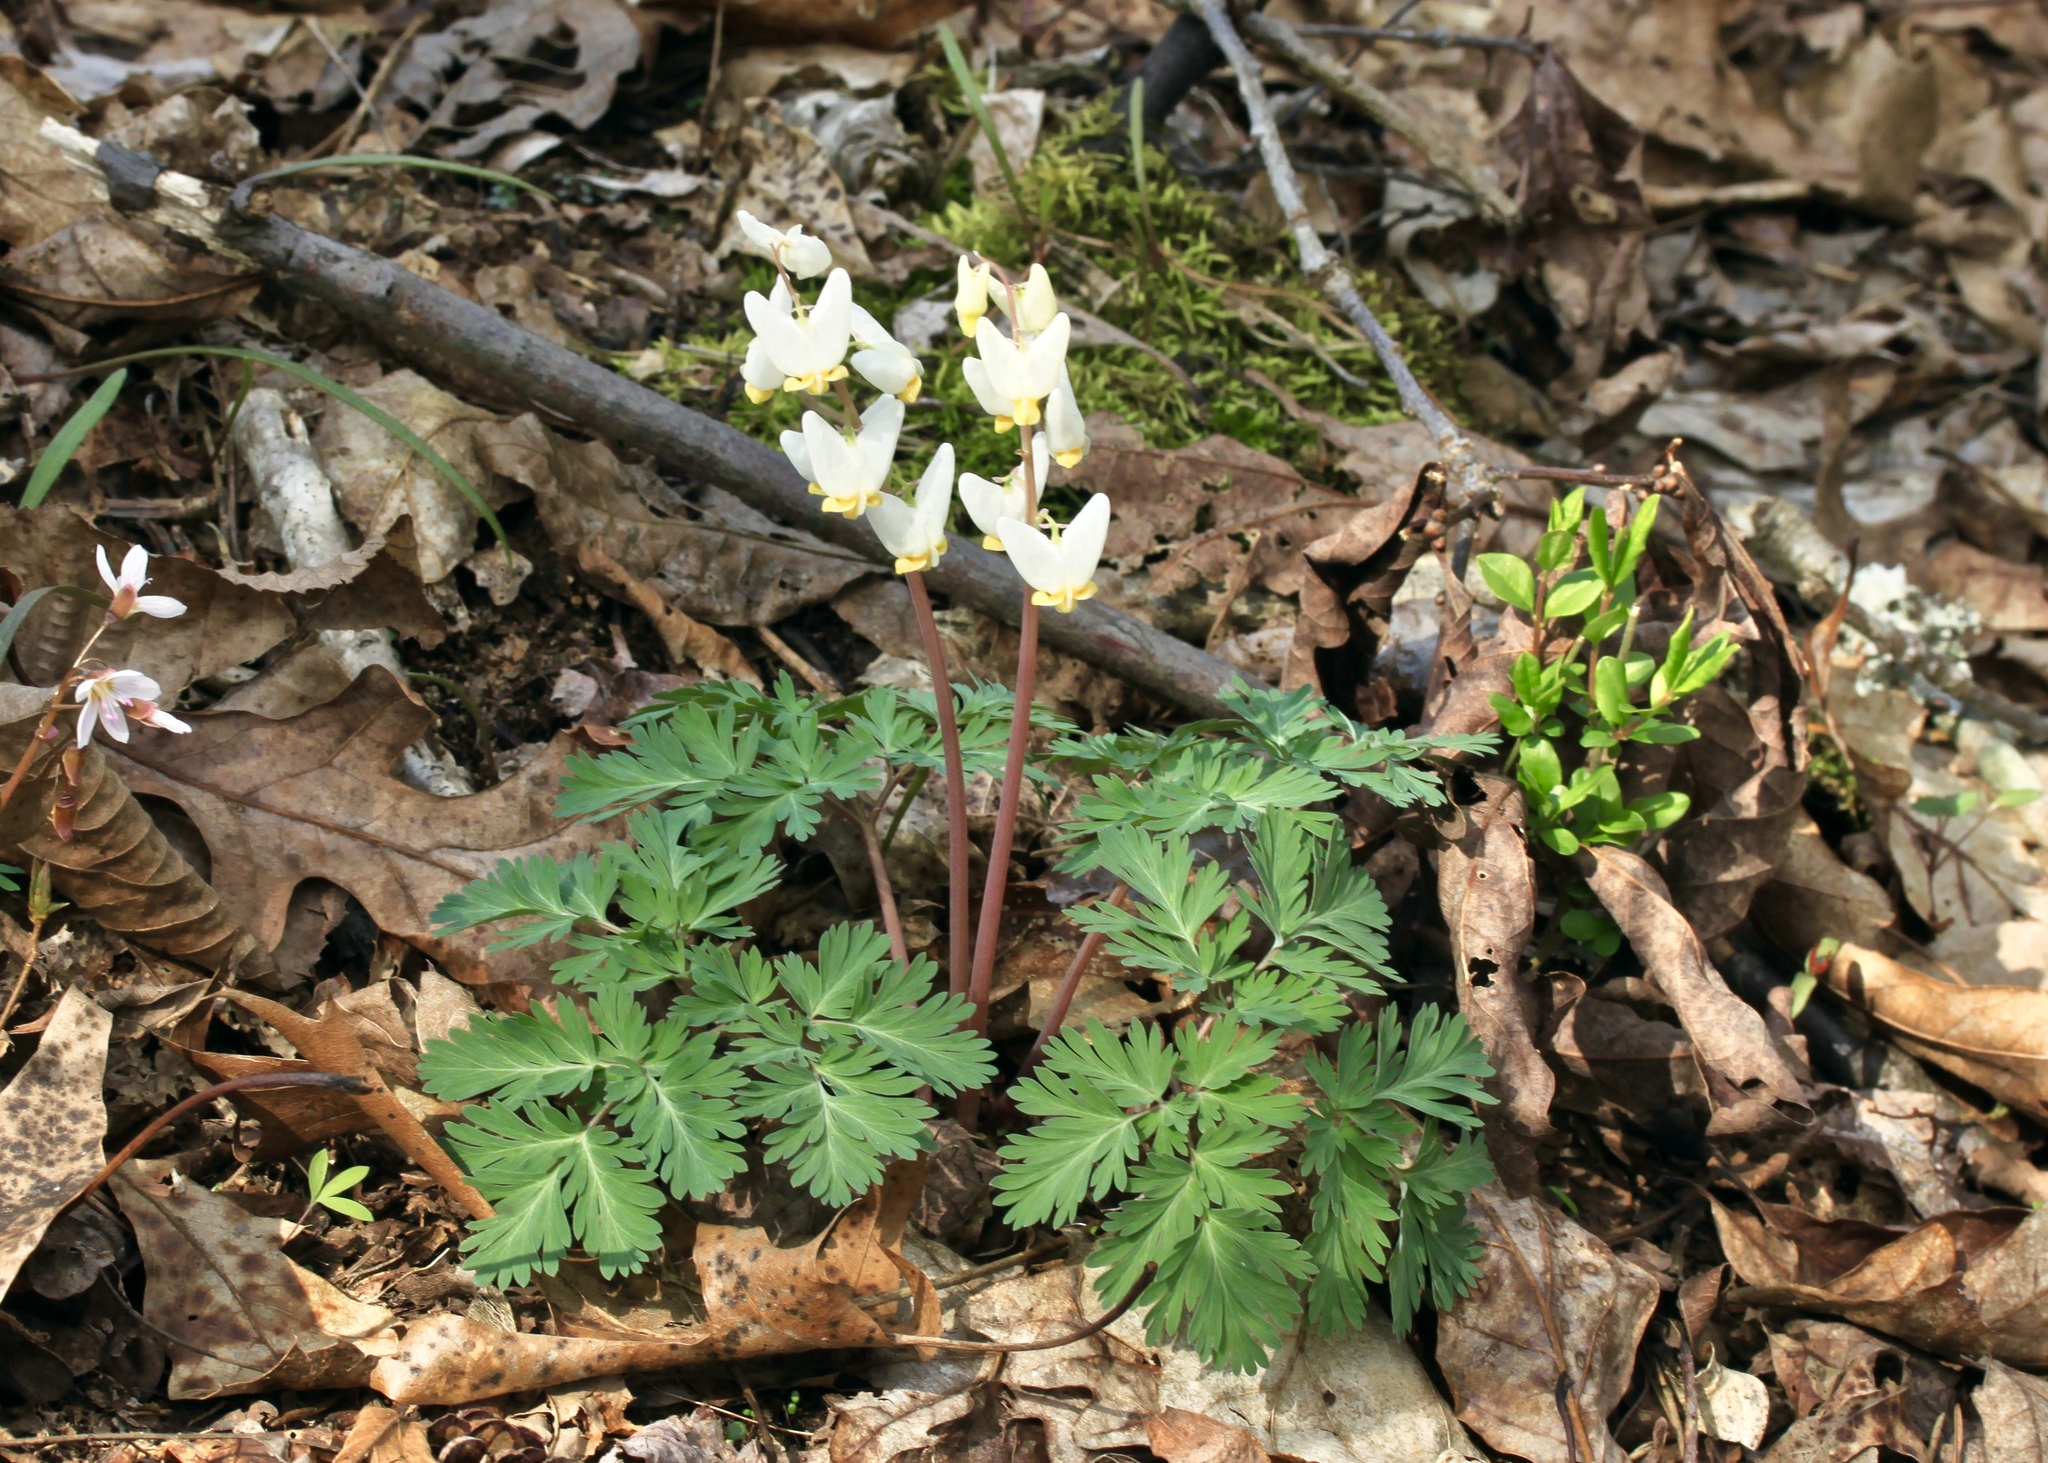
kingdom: Plantae
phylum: Tracheophyta
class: Magnoliopsida
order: Ranunculales
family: Papaveraceae
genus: Dicentra
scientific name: Dicentra cucullaria
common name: Dutchman's breeches
